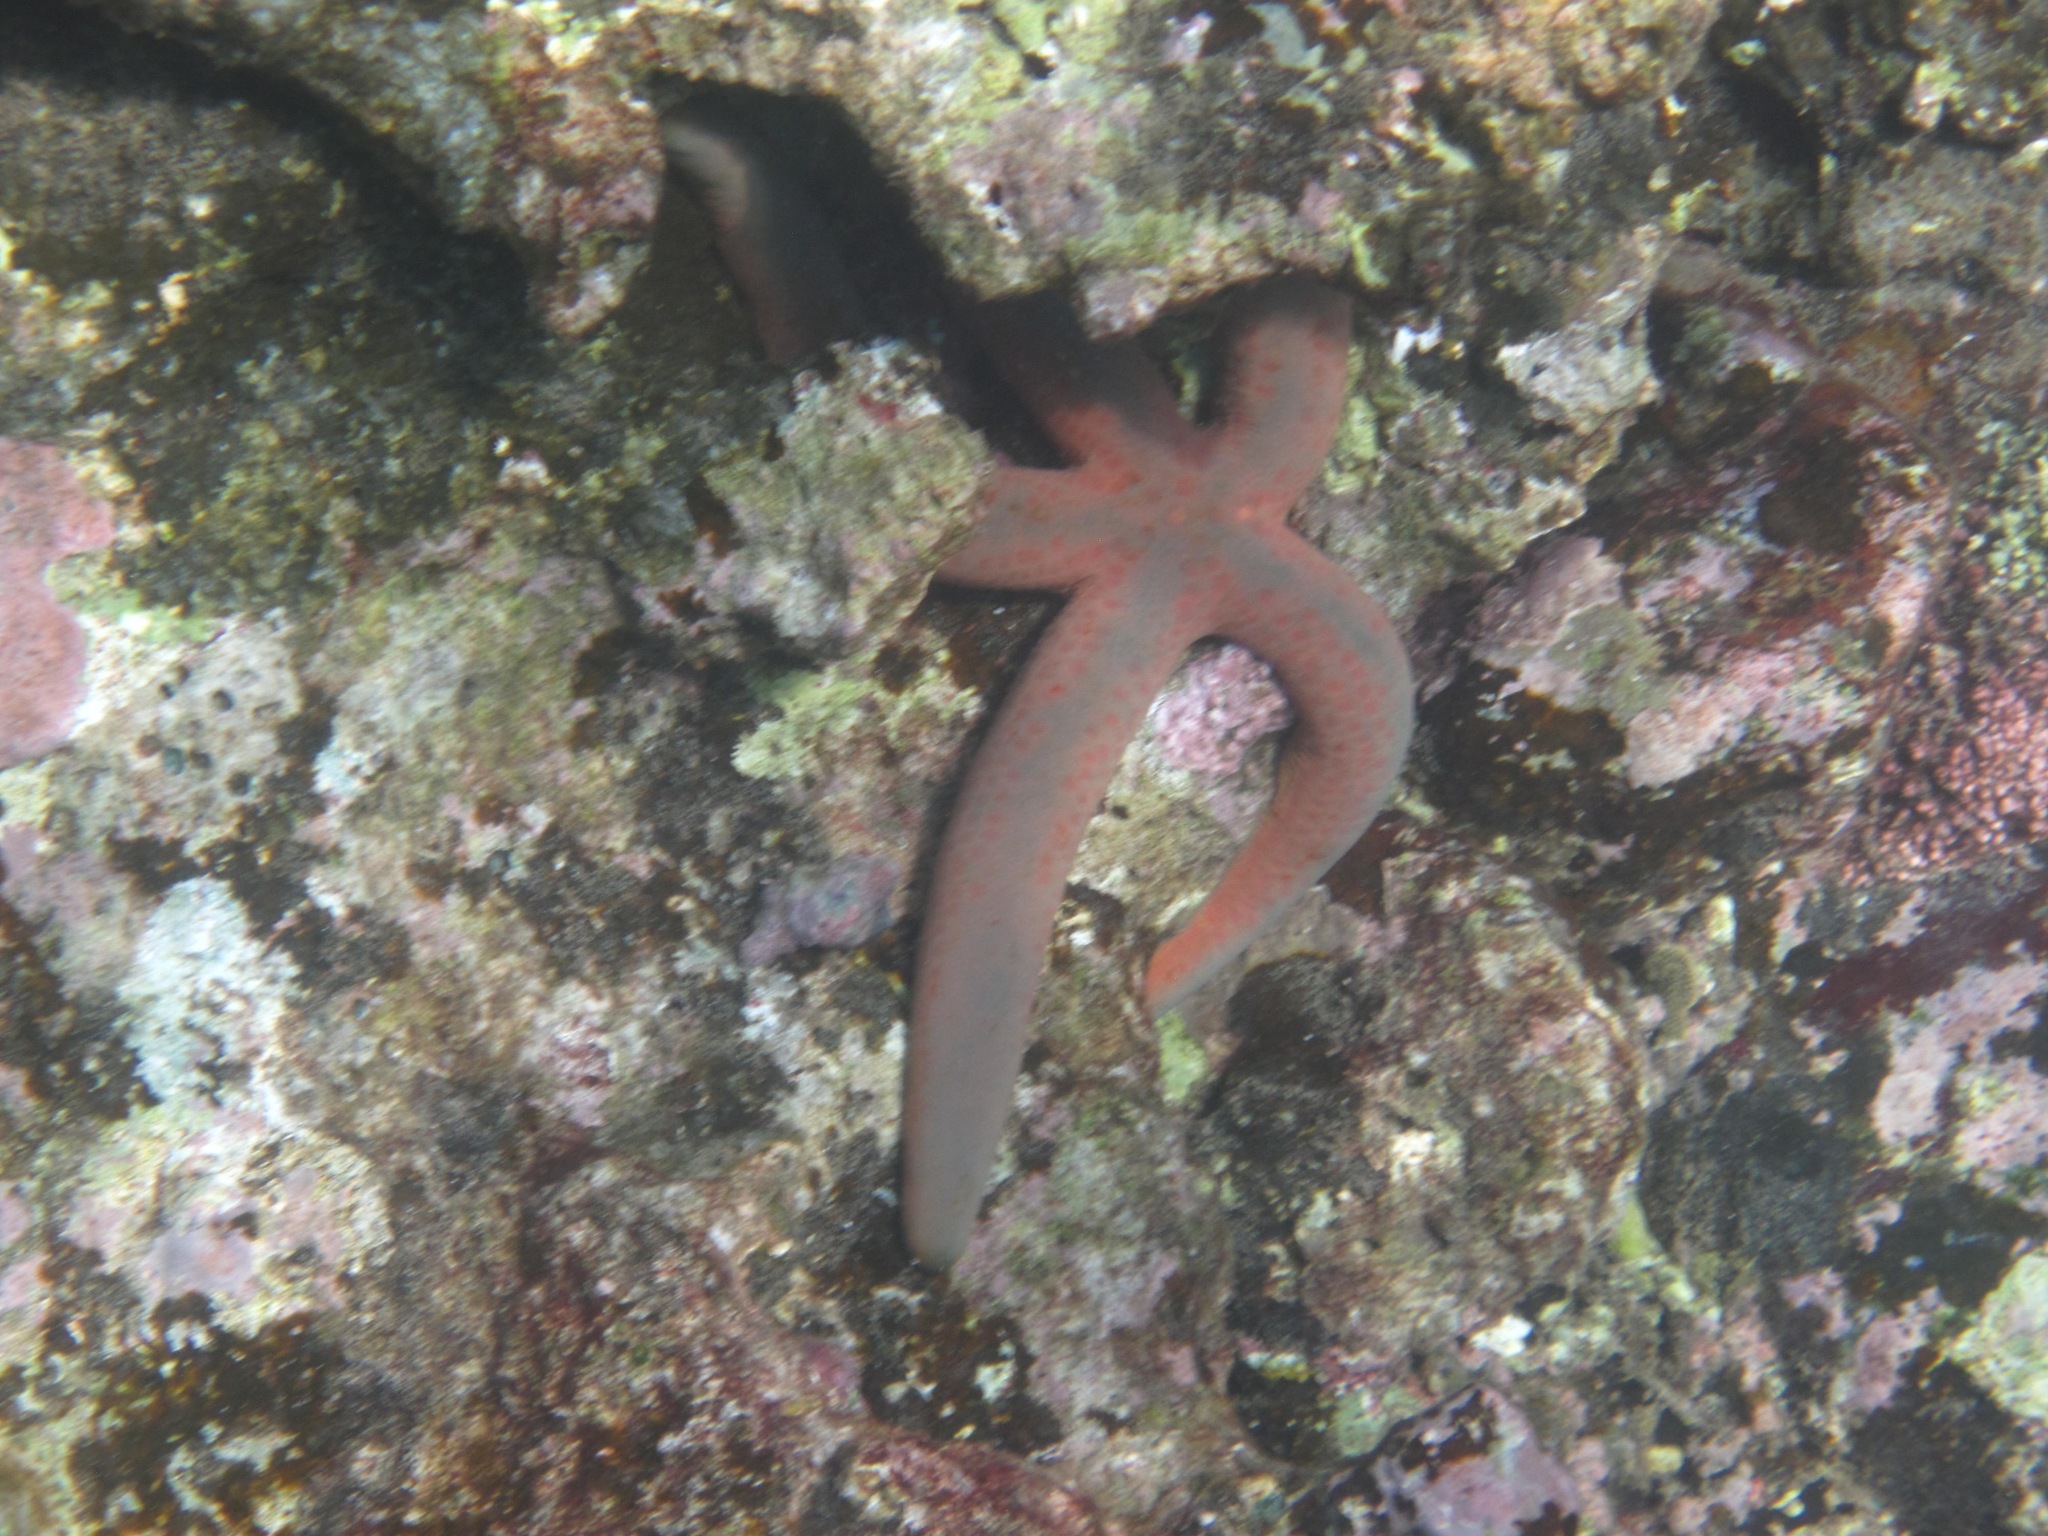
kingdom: Animalia
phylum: Echinodermata
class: Asteroidea
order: Valvatida
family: Ophidiasteridae
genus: Linckia
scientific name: Linckia multifora
